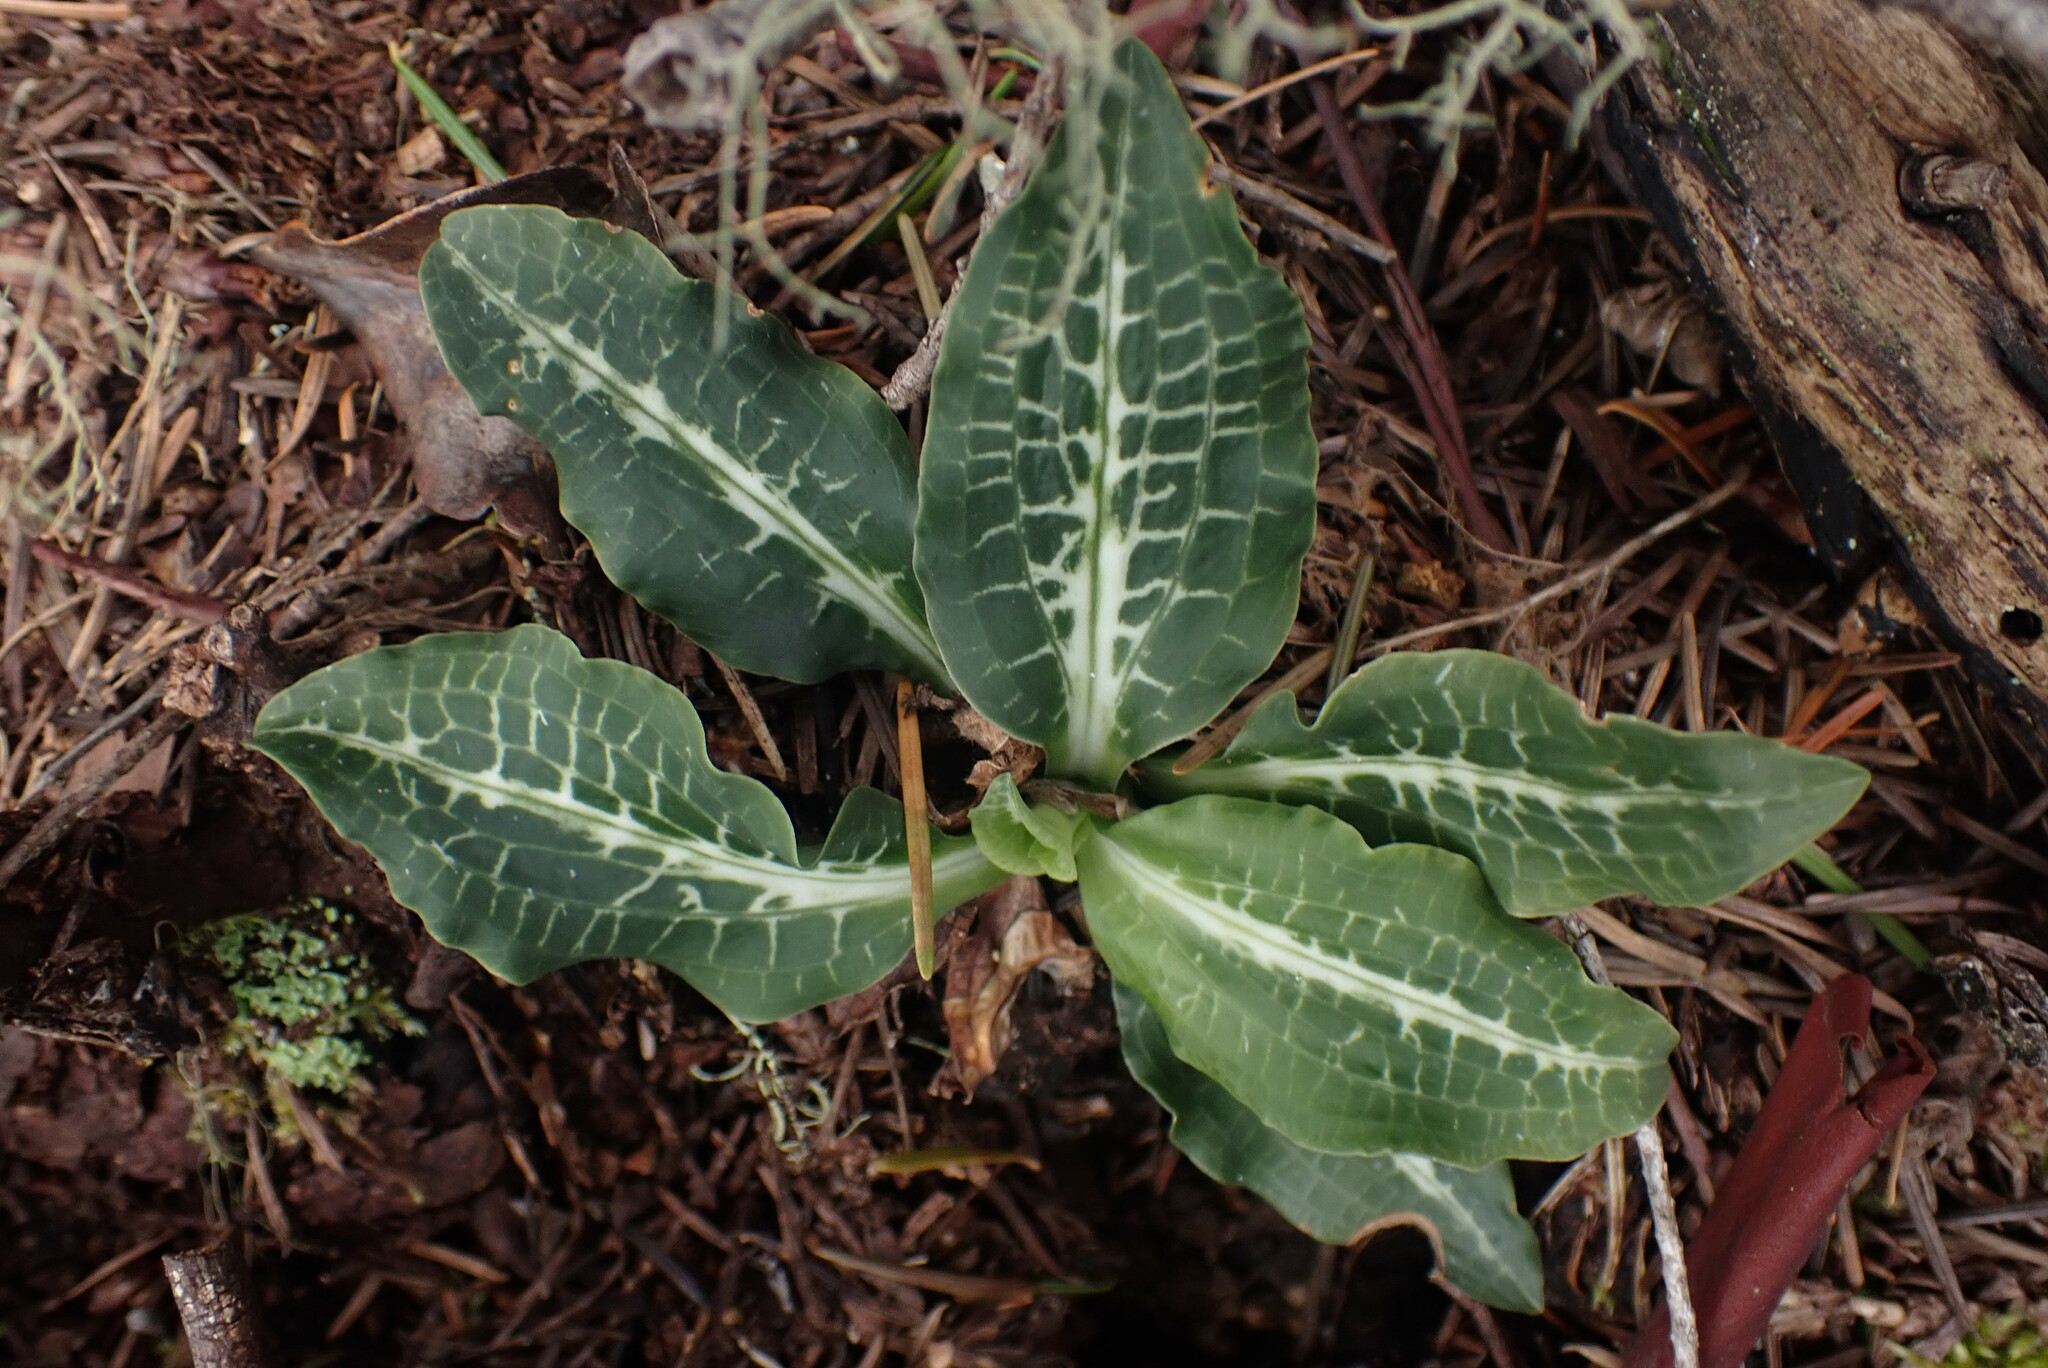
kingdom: Plantae
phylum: Tracheophyta
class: Liliopsida
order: Asparagales
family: Orchidaceae
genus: Goodyera
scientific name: Goodyera oblongifolia
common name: Giant rattlesnake-plantain
